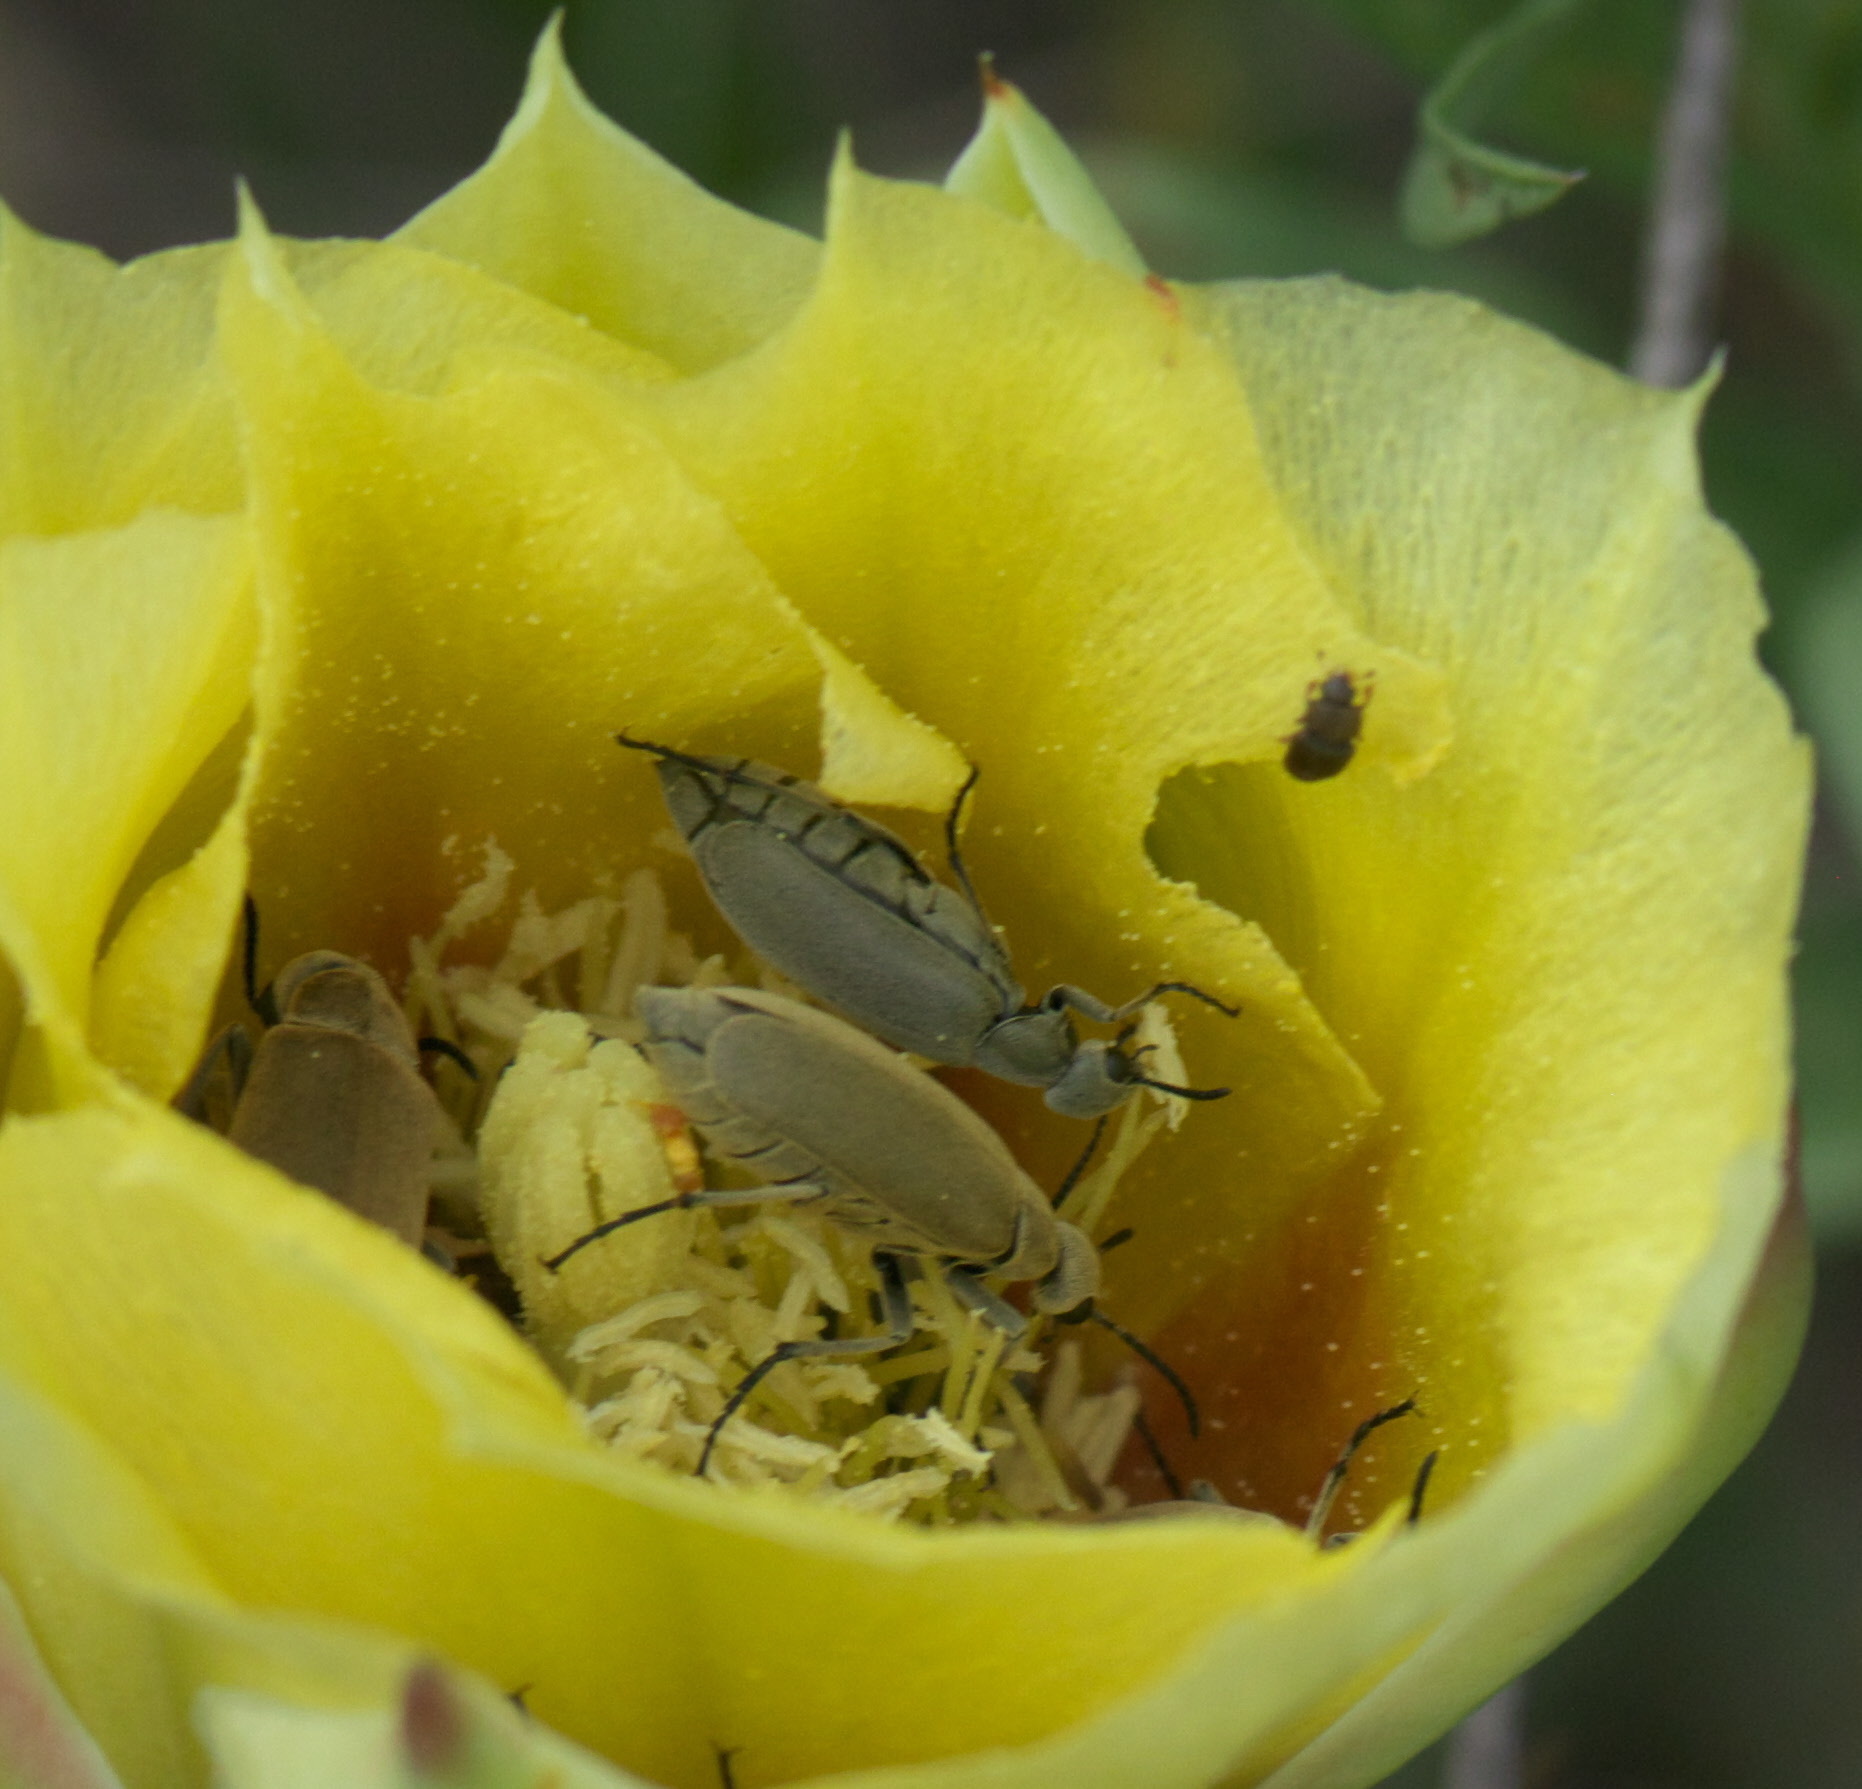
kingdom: Animalia
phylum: Arthropoda
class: Insecta
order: Coleoptera
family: Meloidae
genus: Epicauta
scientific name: Epicauta sericans
